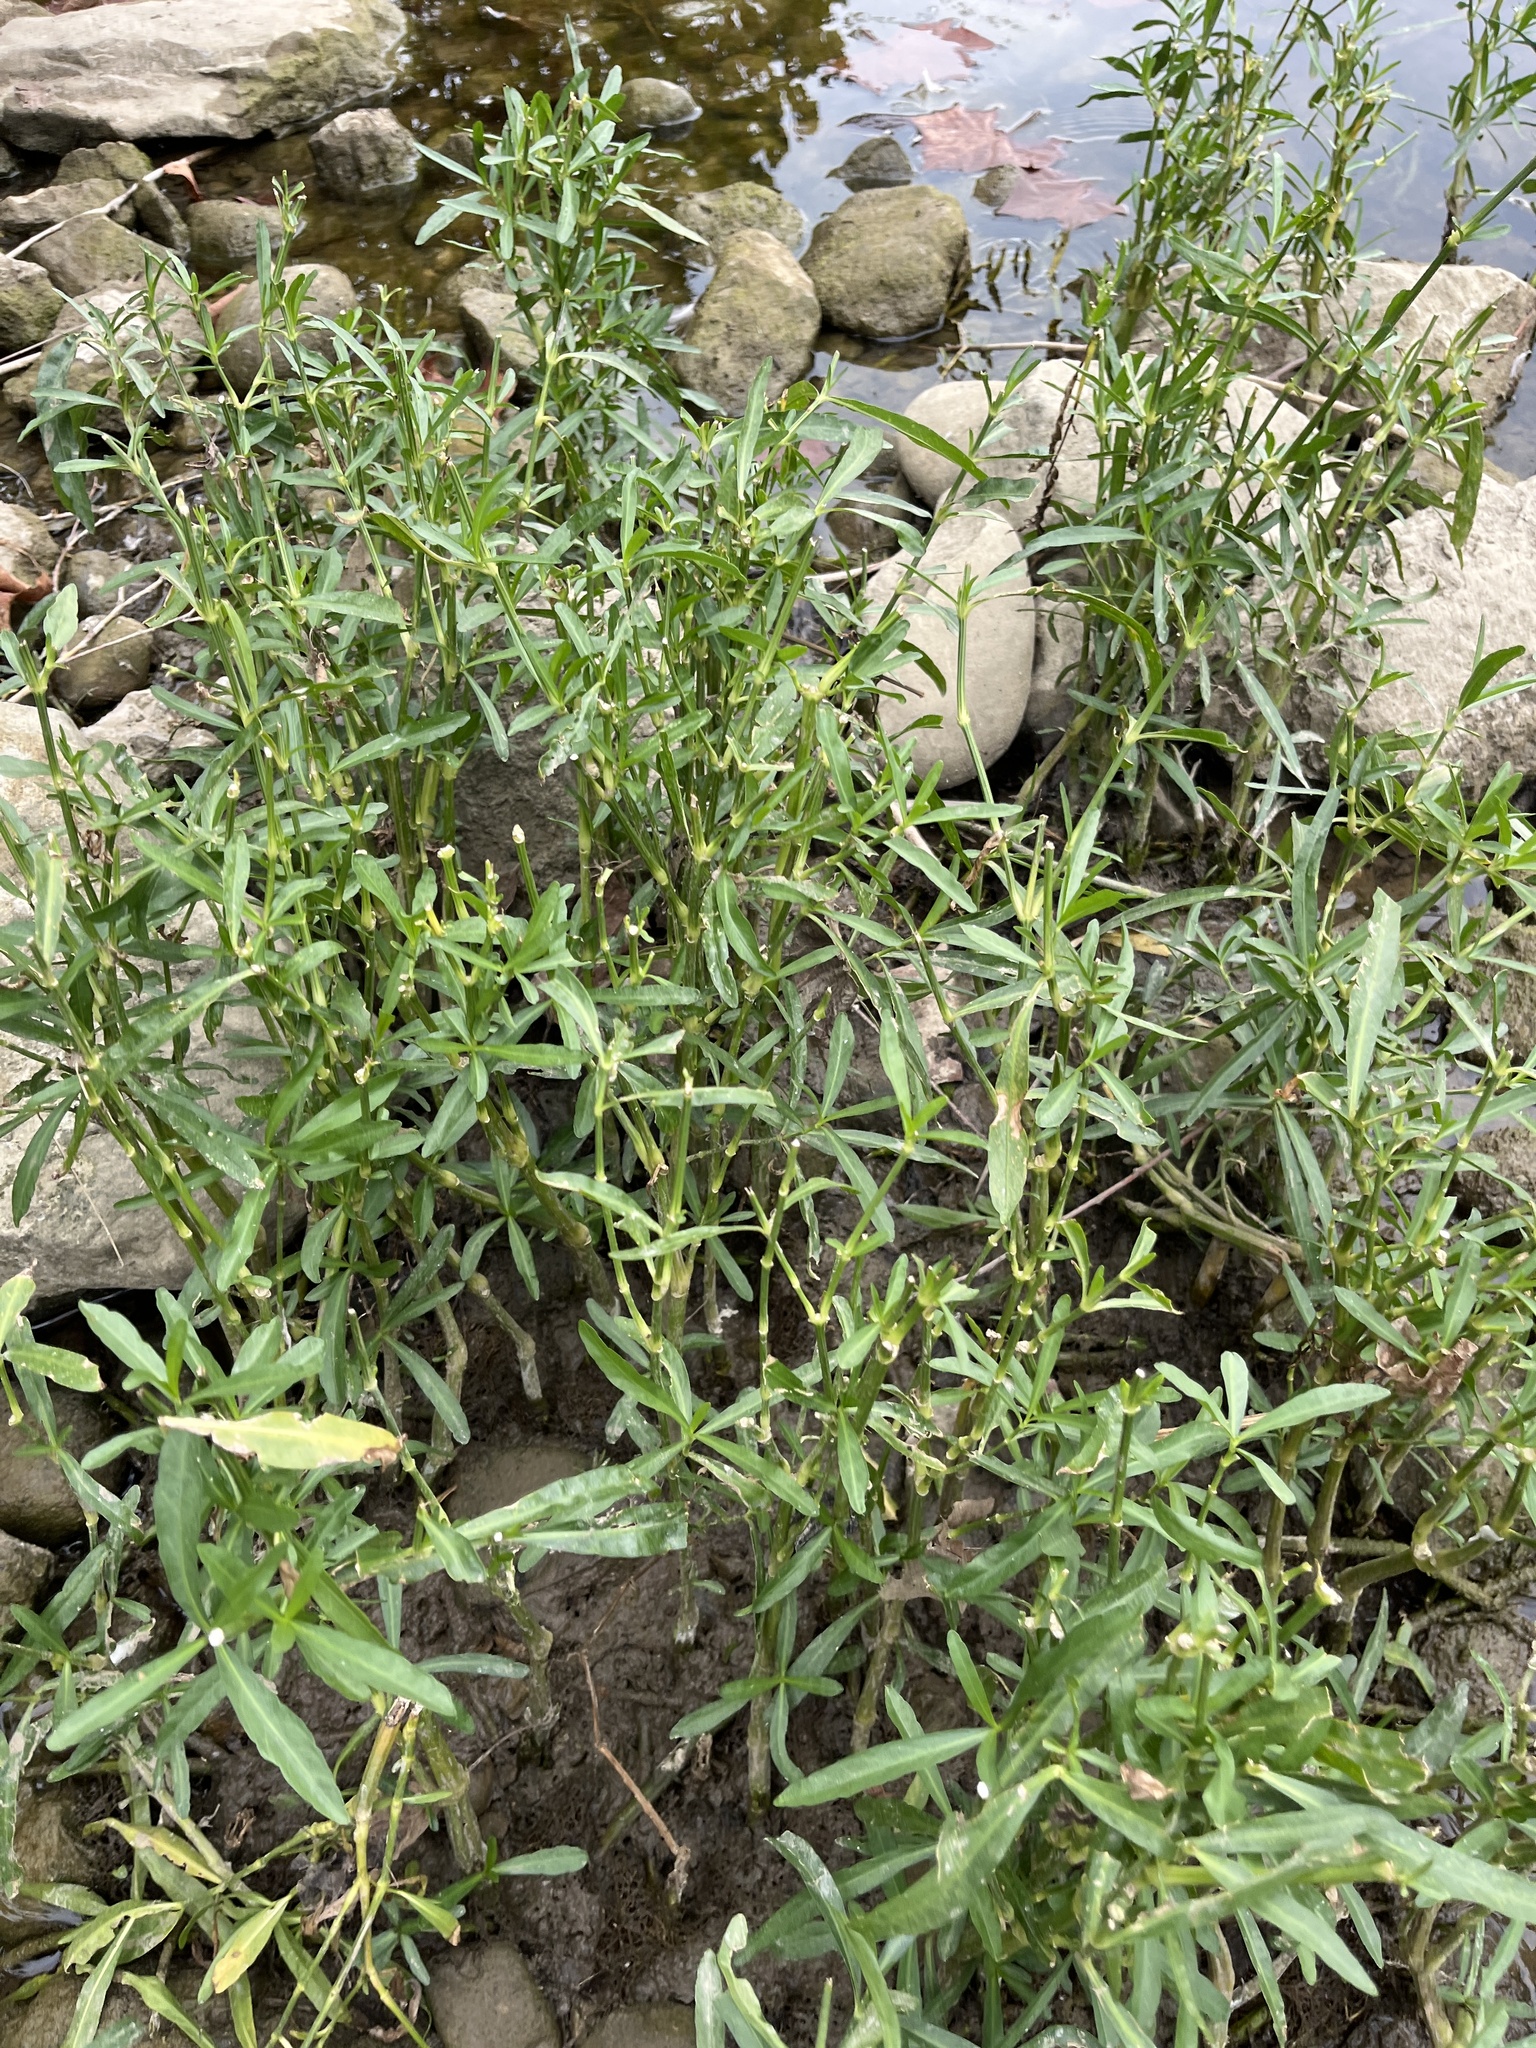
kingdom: Plantae
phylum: Tracheophyta
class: Magnoliopsida
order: Lamiales
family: Acanthaceae
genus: Dianthera
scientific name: Dianthera americana
